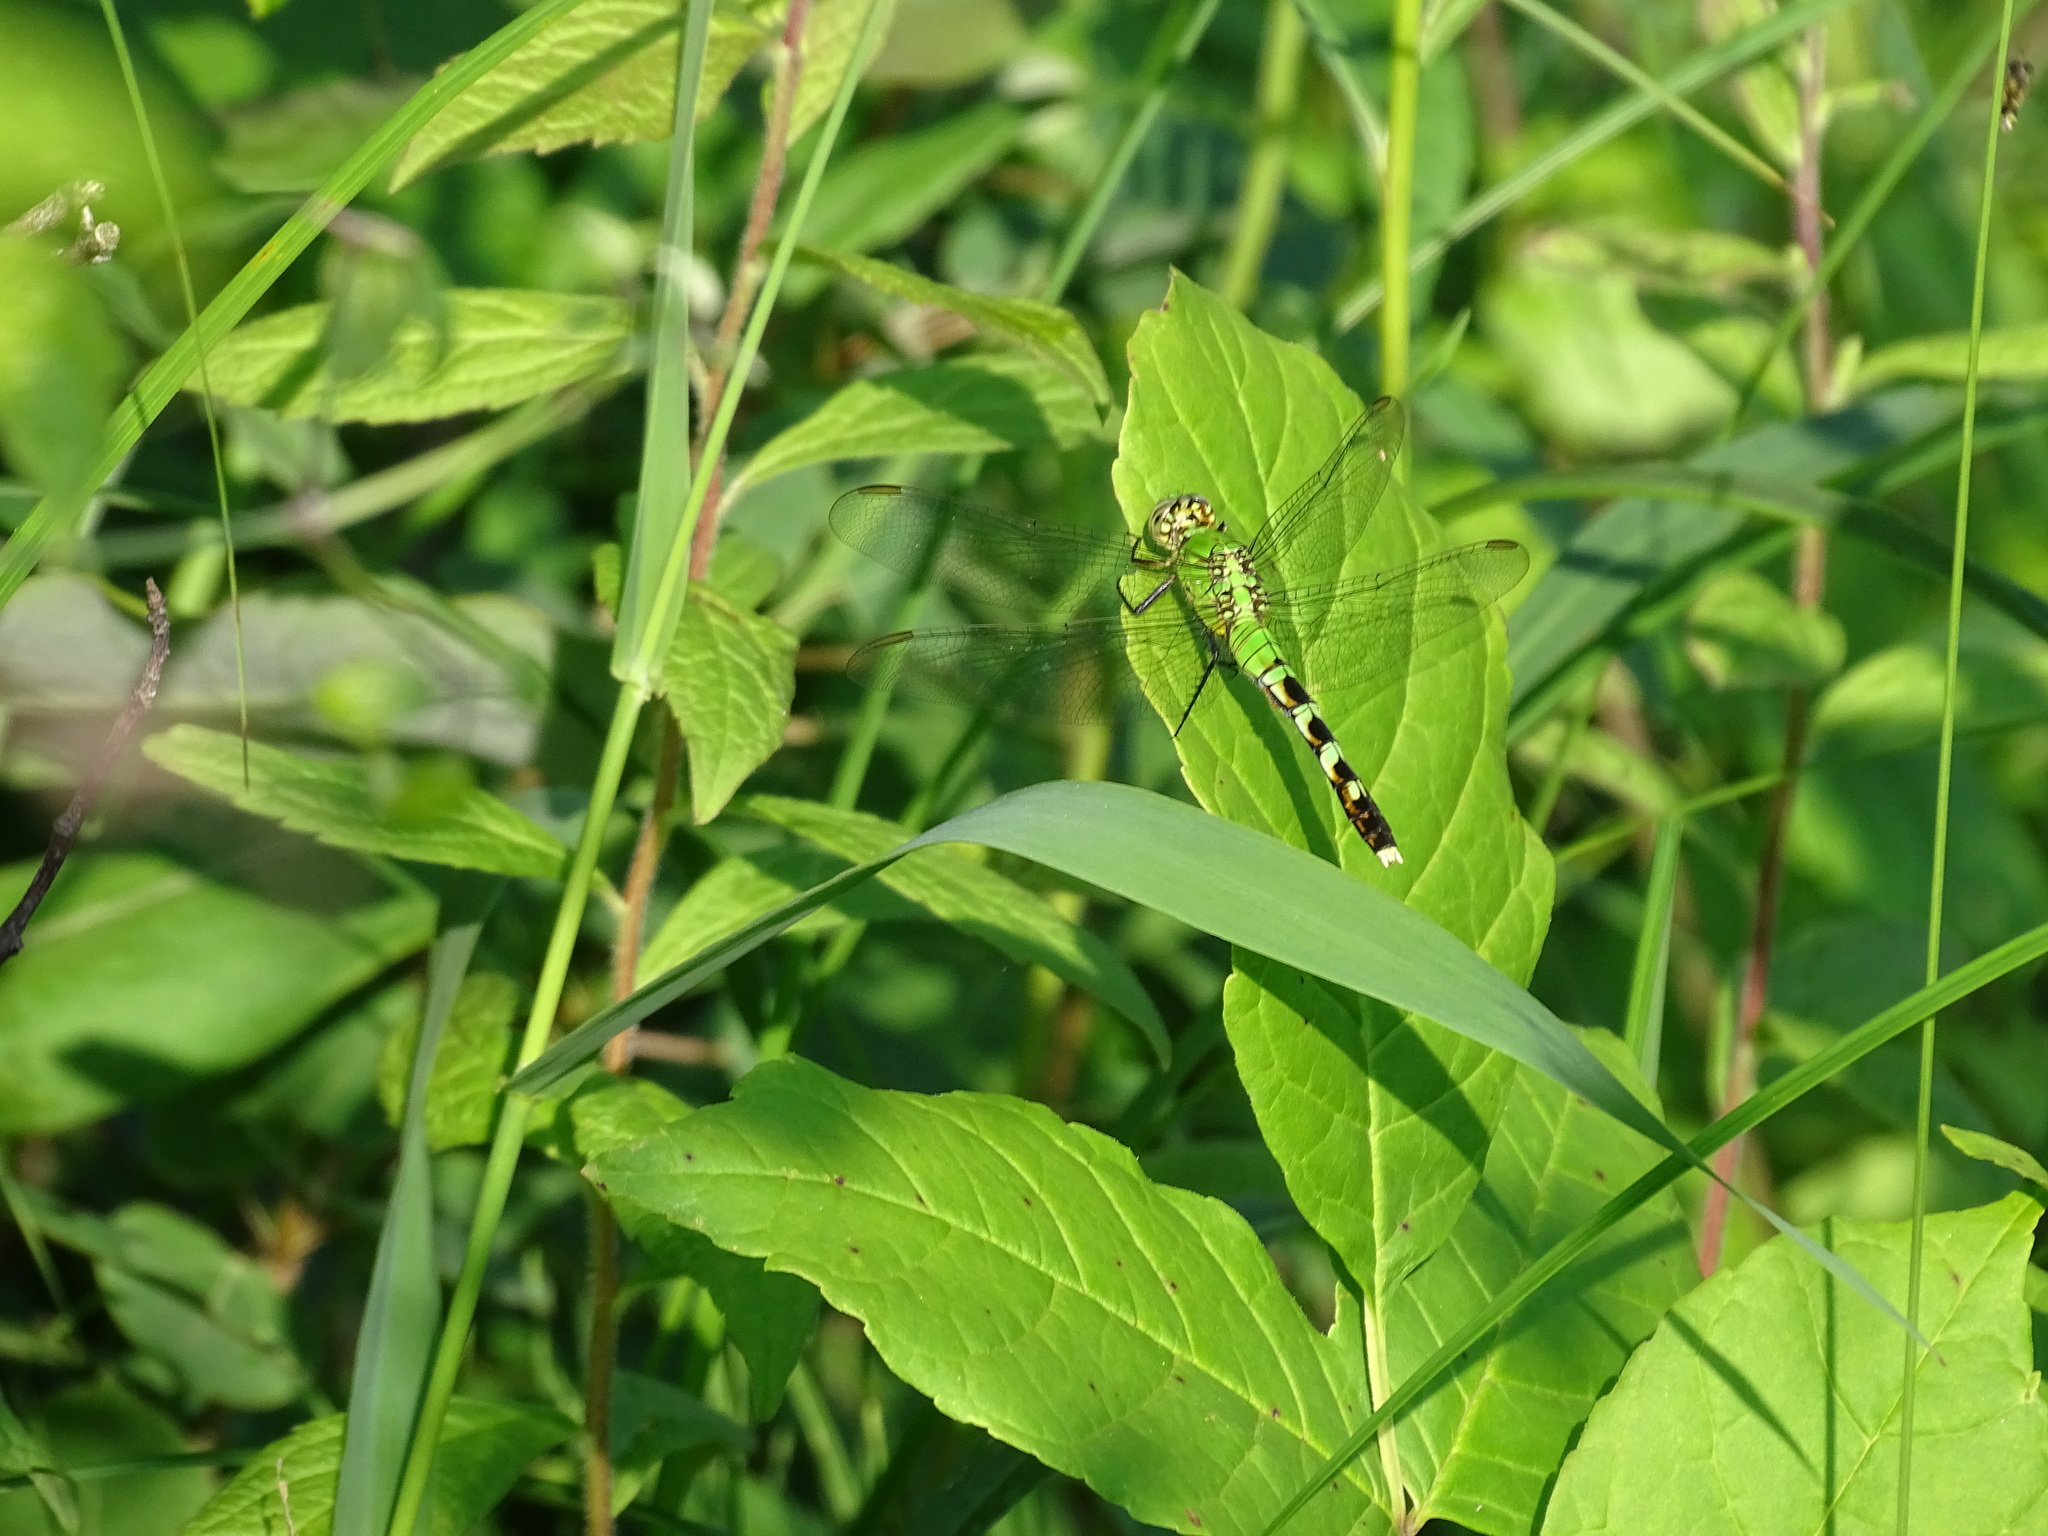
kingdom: Animalia
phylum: Arthropoda
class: Insecta
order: Odonata
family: Libellulidae
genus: Erythemis
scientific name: Erythemis simplicicollis
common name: Eastern pondhawk
